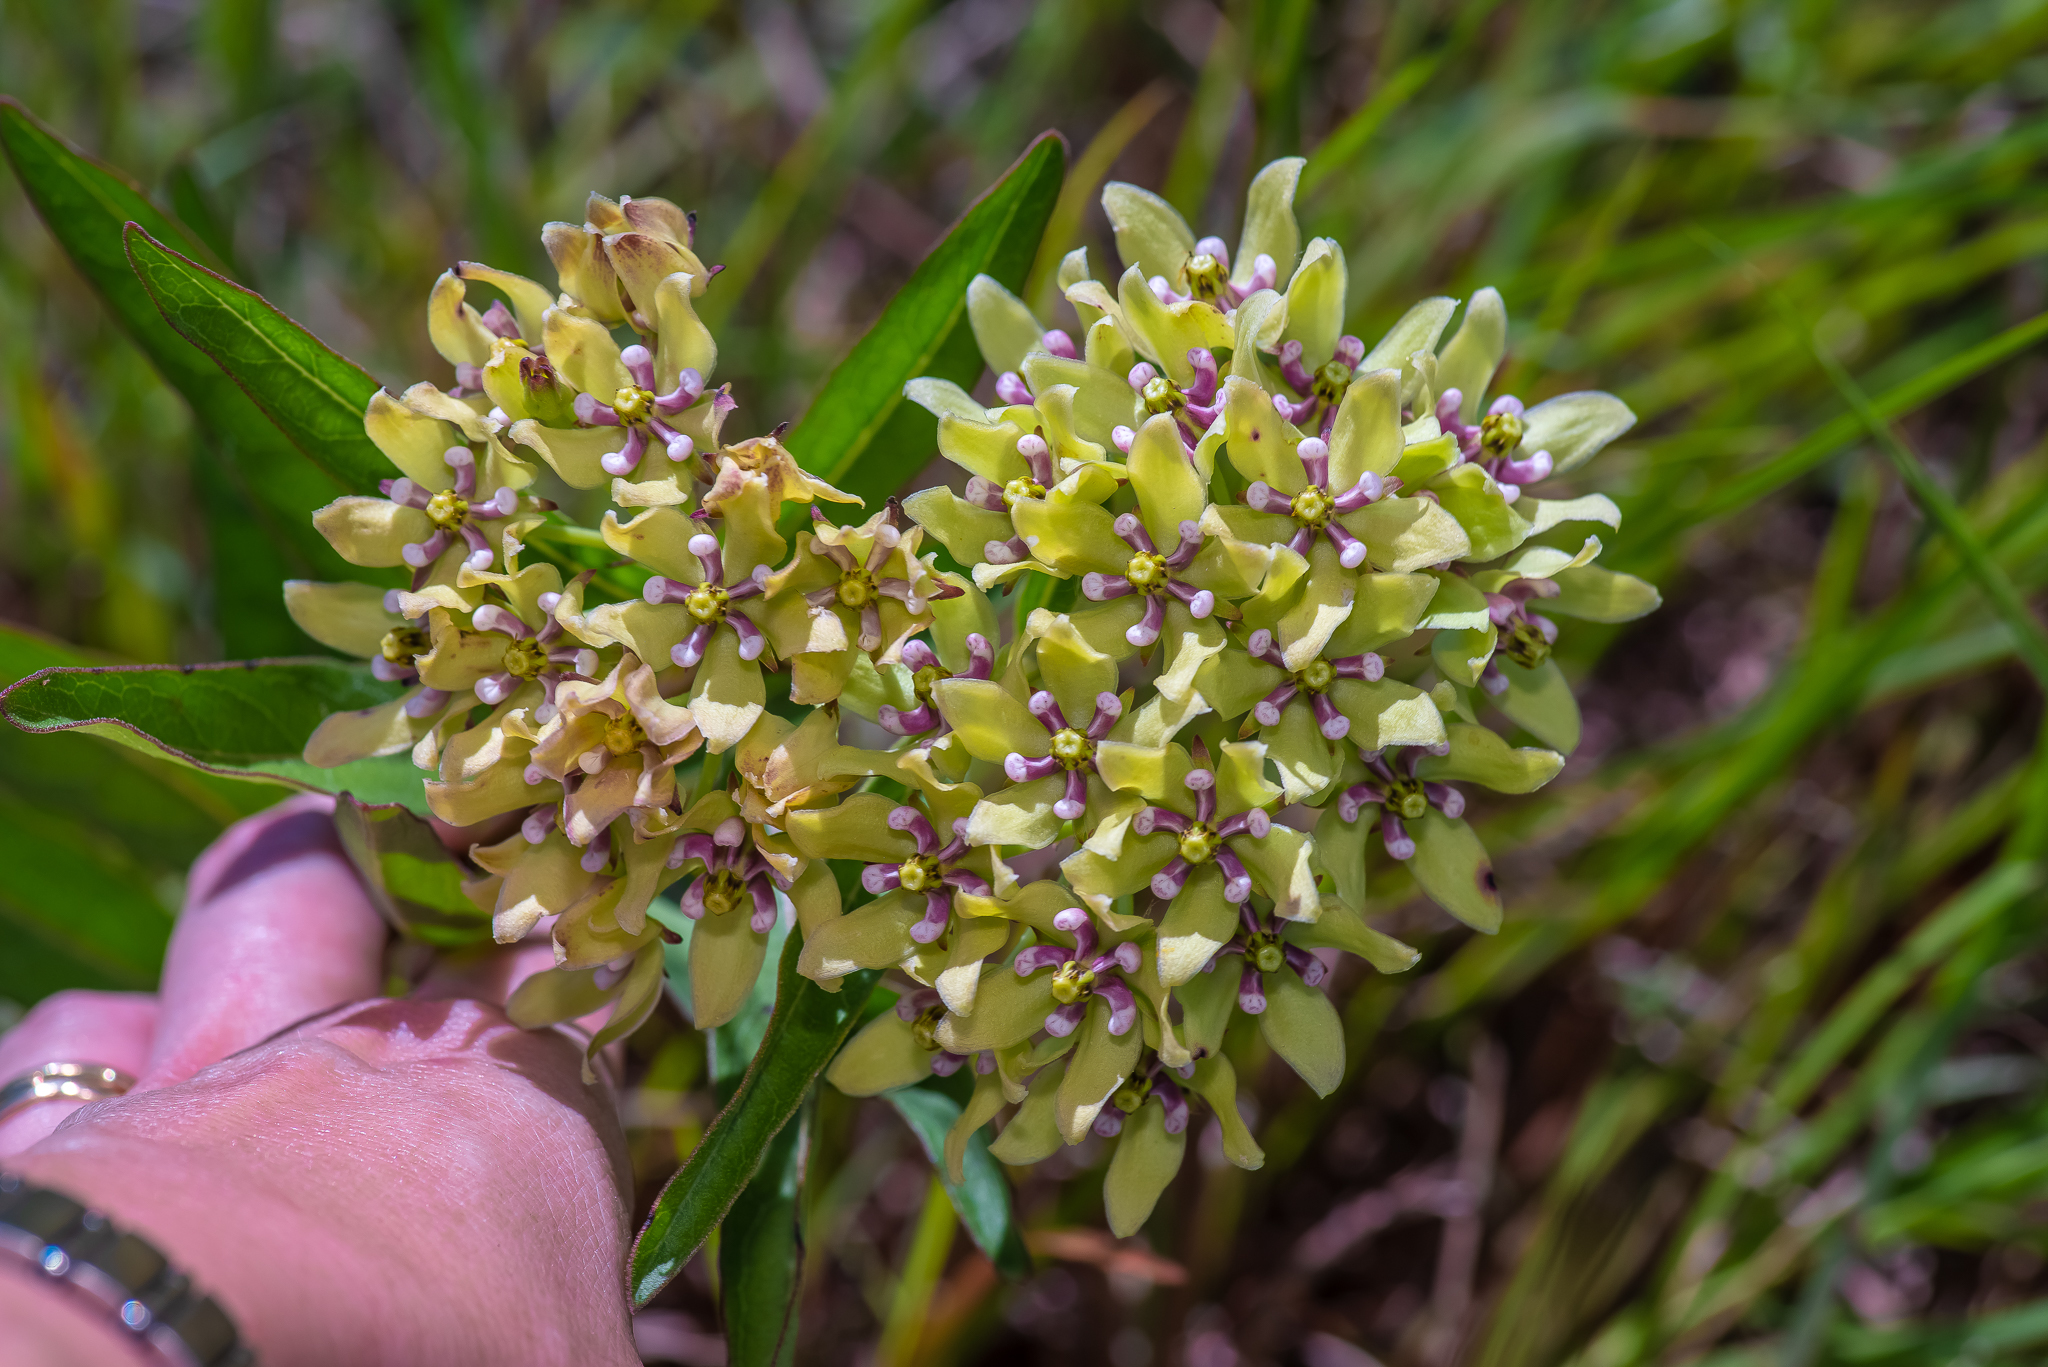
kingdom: Plantae
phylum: Tracheophyta
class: Magnoliopsida
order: Gentianales
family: Apocynaceae
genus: Asclepias
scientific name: Asclepias viridis
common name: Antelope-horns
